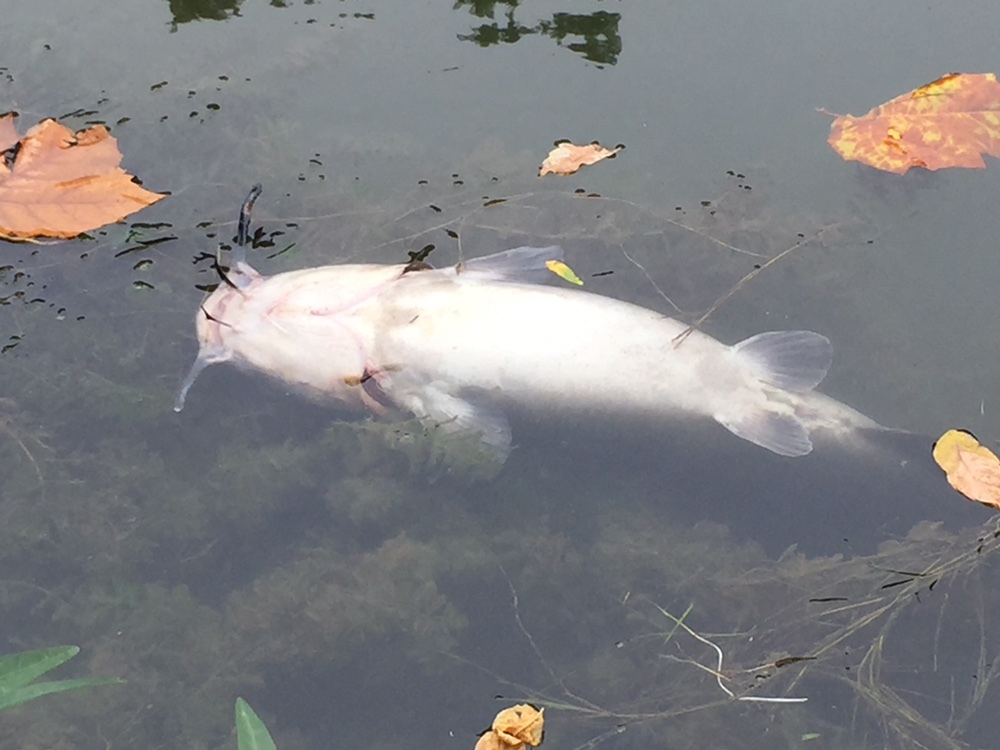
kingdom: Animalia
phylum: Chordata
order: Siluriformes
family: Ictaluridae
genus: Ictalurus
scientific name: Ictalurus punctatus
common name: Channel catfish
